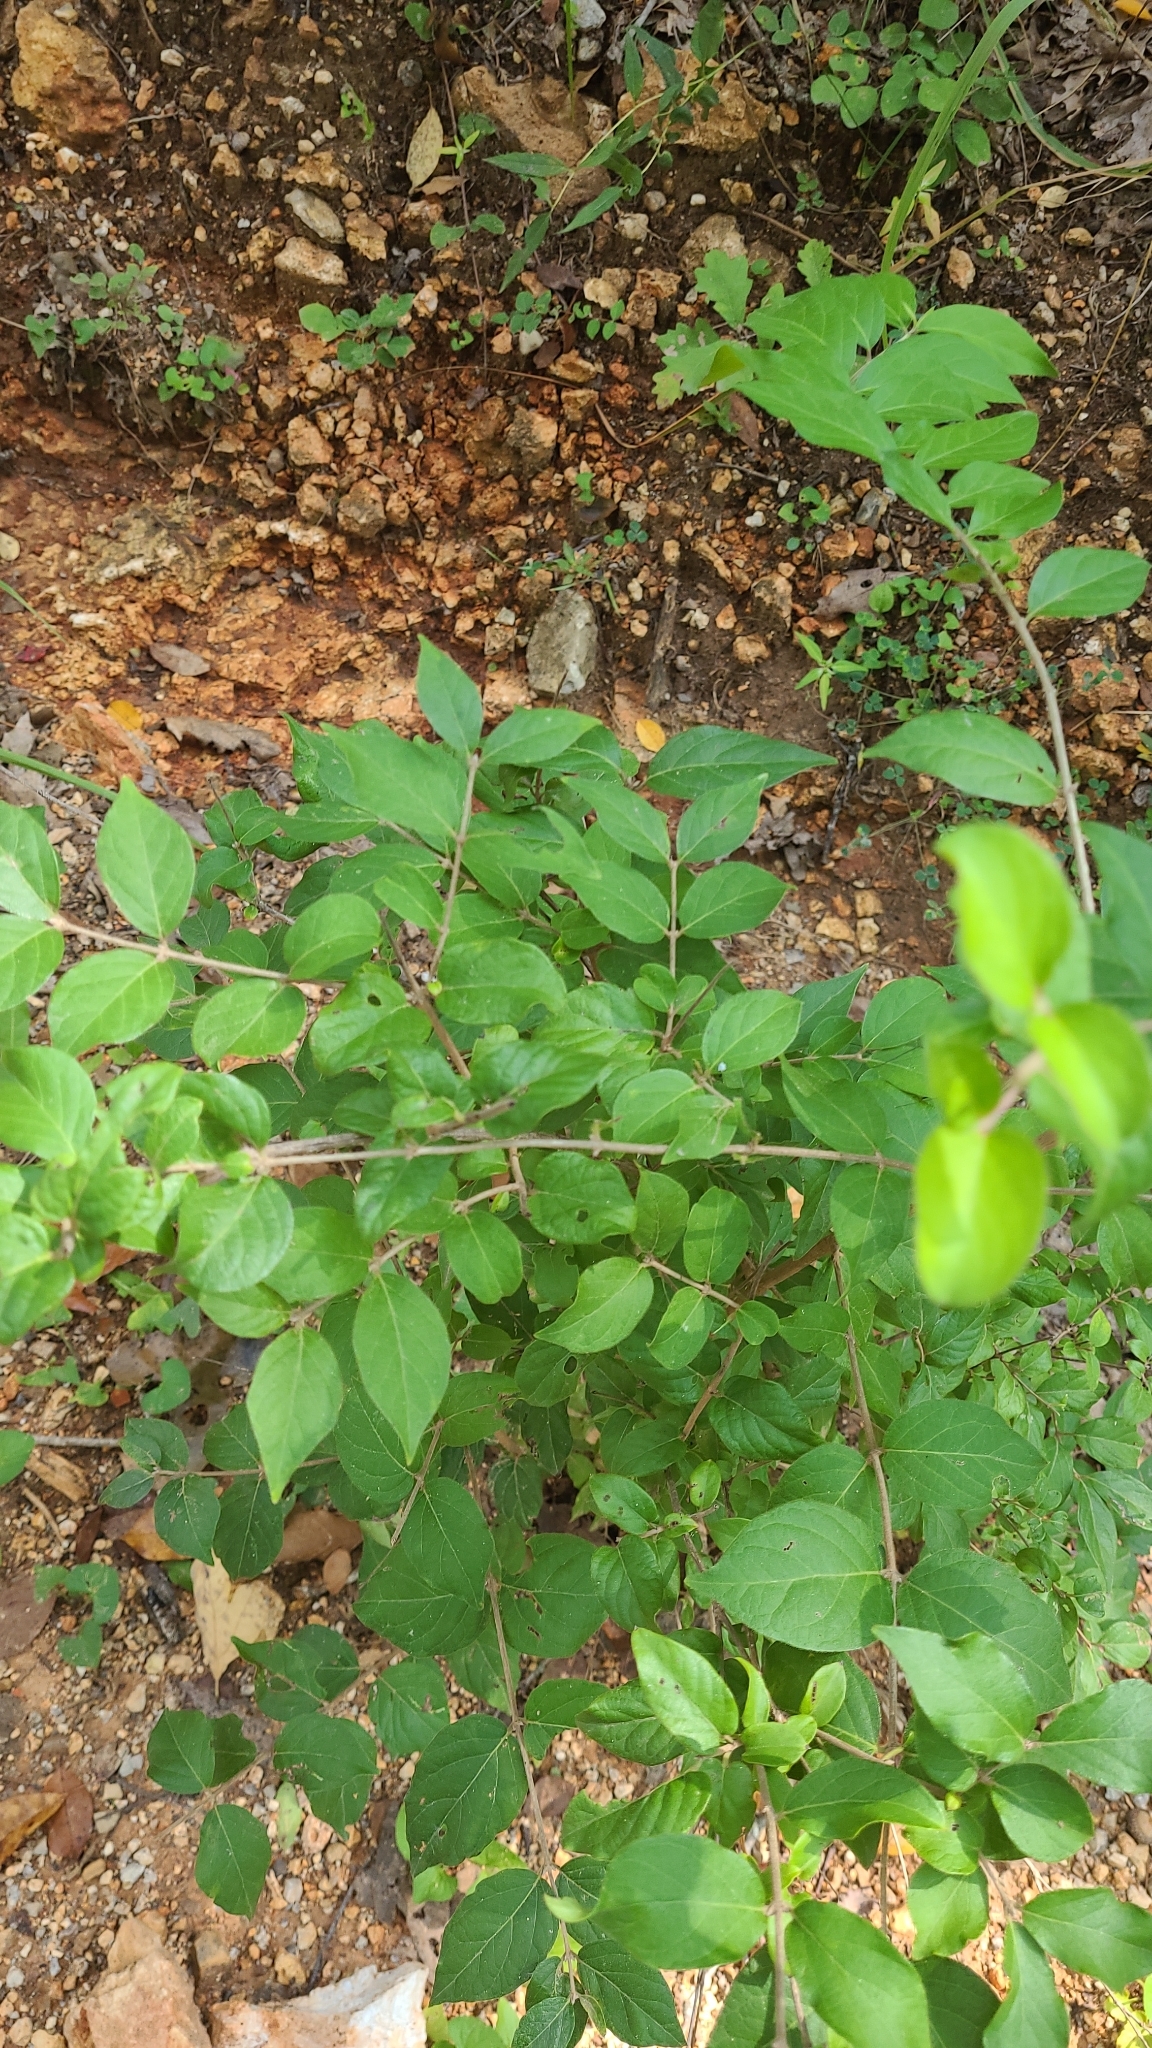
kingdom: Plantae
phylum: Tracheophyta
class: Magnoliopsida
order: Dipsacales
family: Caprifoliaceae
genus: Lonicera
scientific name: Lonicera maackii
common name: Amur honeysuckle
